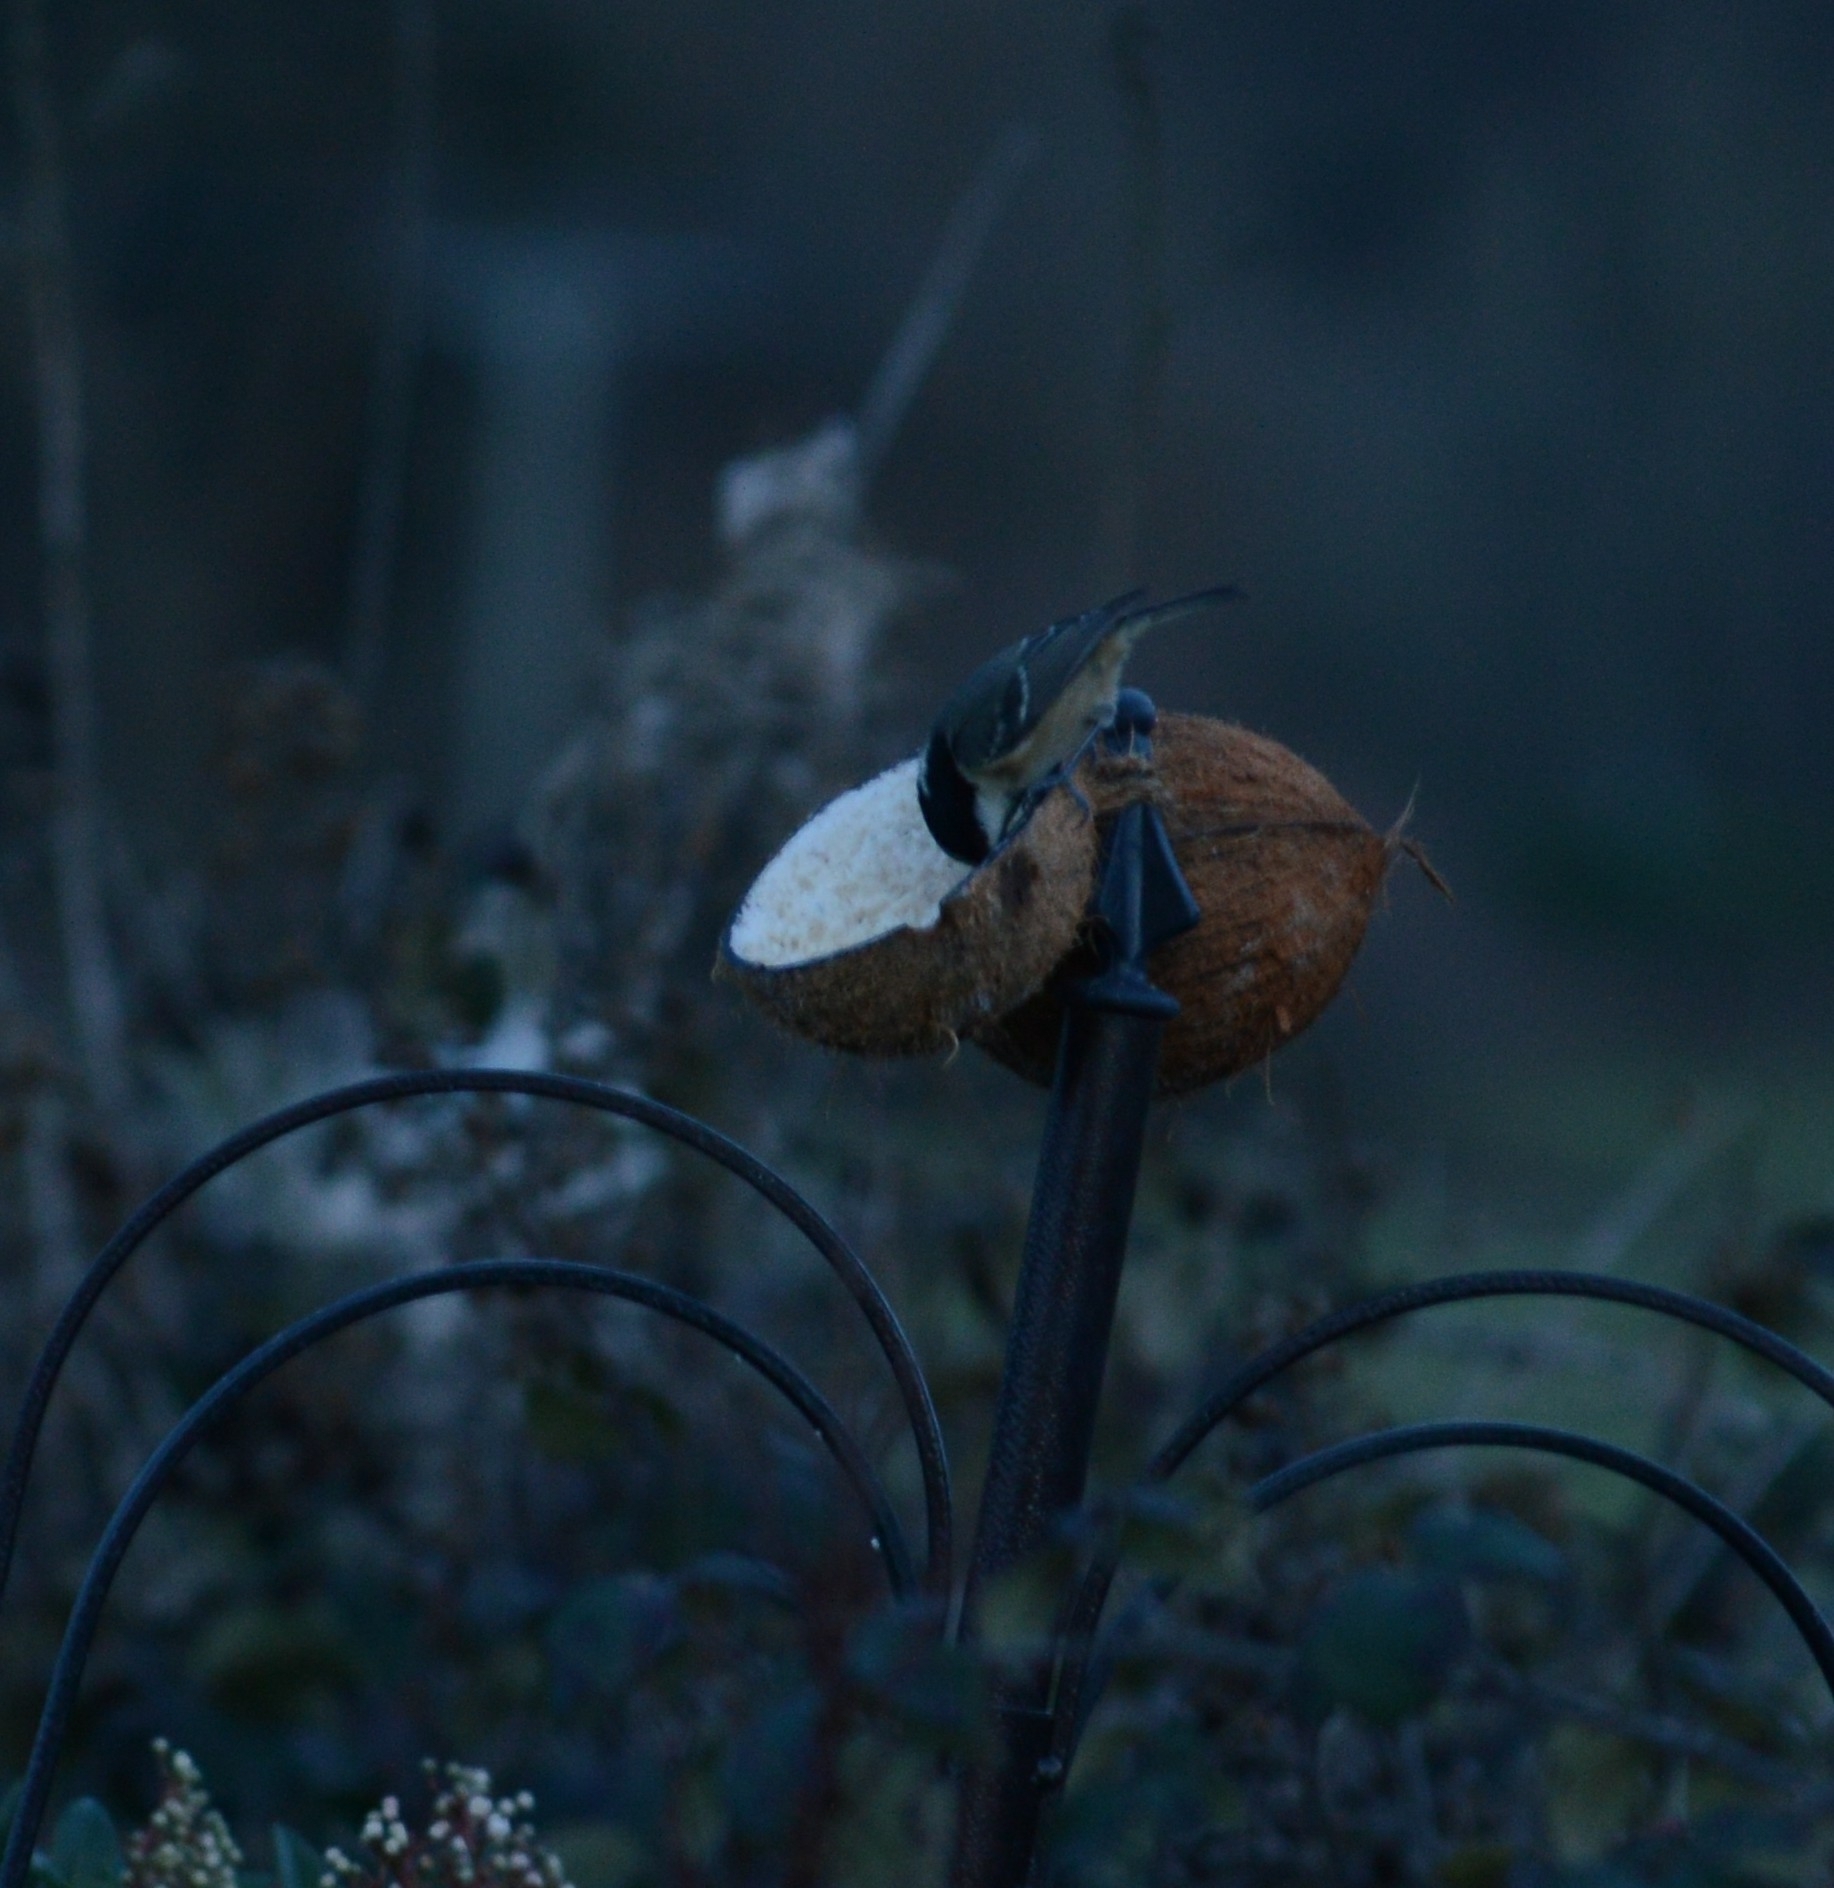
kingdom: Animalia
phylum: Chordata
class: Aves
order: Passeriformes
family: Paridae
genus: Periparus
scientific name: Periparus ater
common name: Coal tit
